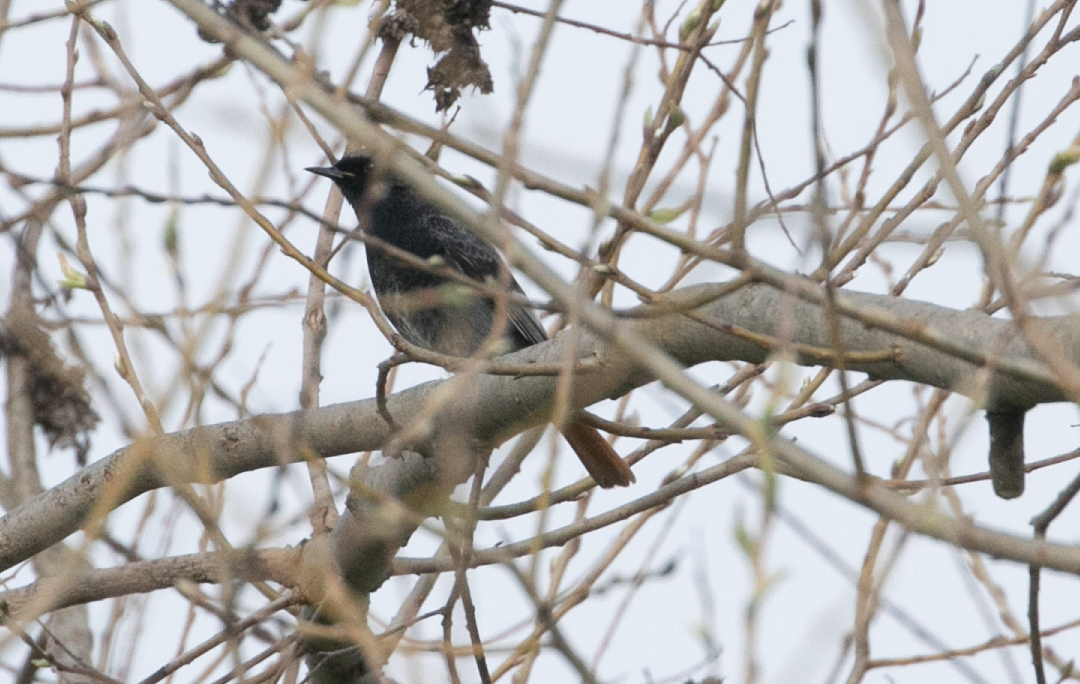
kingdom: Animalia
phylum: Chordata
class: Aves
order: Passeriformes
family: Muscicapidae
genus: Phoenicurus
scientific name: Phoenicurus ochruros
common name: Black redstart
